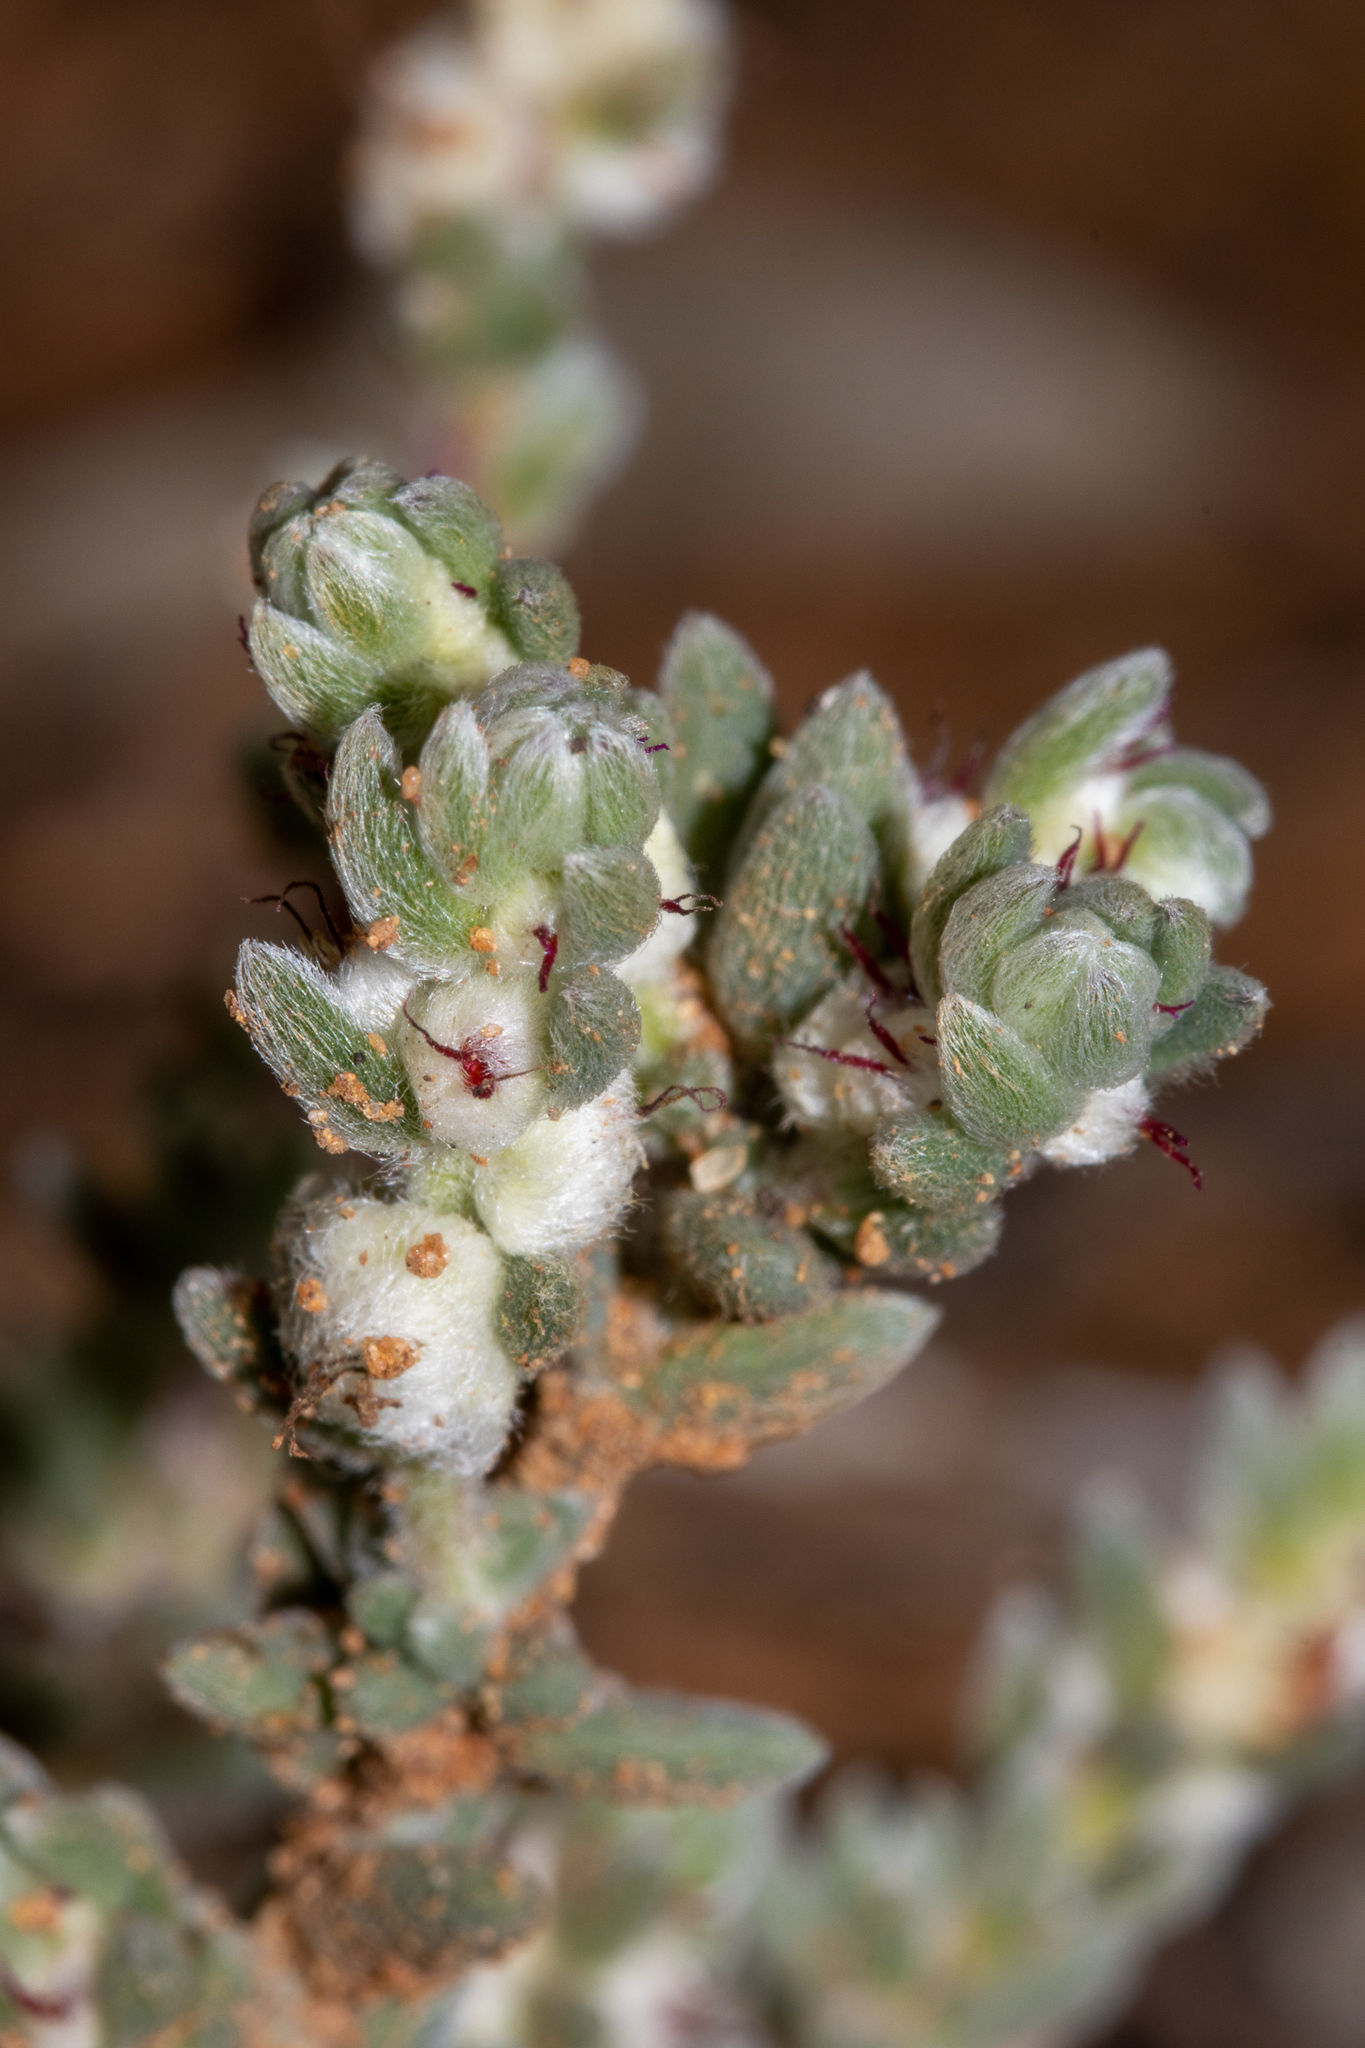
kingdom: Plantae
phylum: Tracheophyta
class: Magnoliopsida
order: Caryophyllales
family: Amaranthaceae
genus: Maireana
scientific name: Maireana sclerolaenoides
